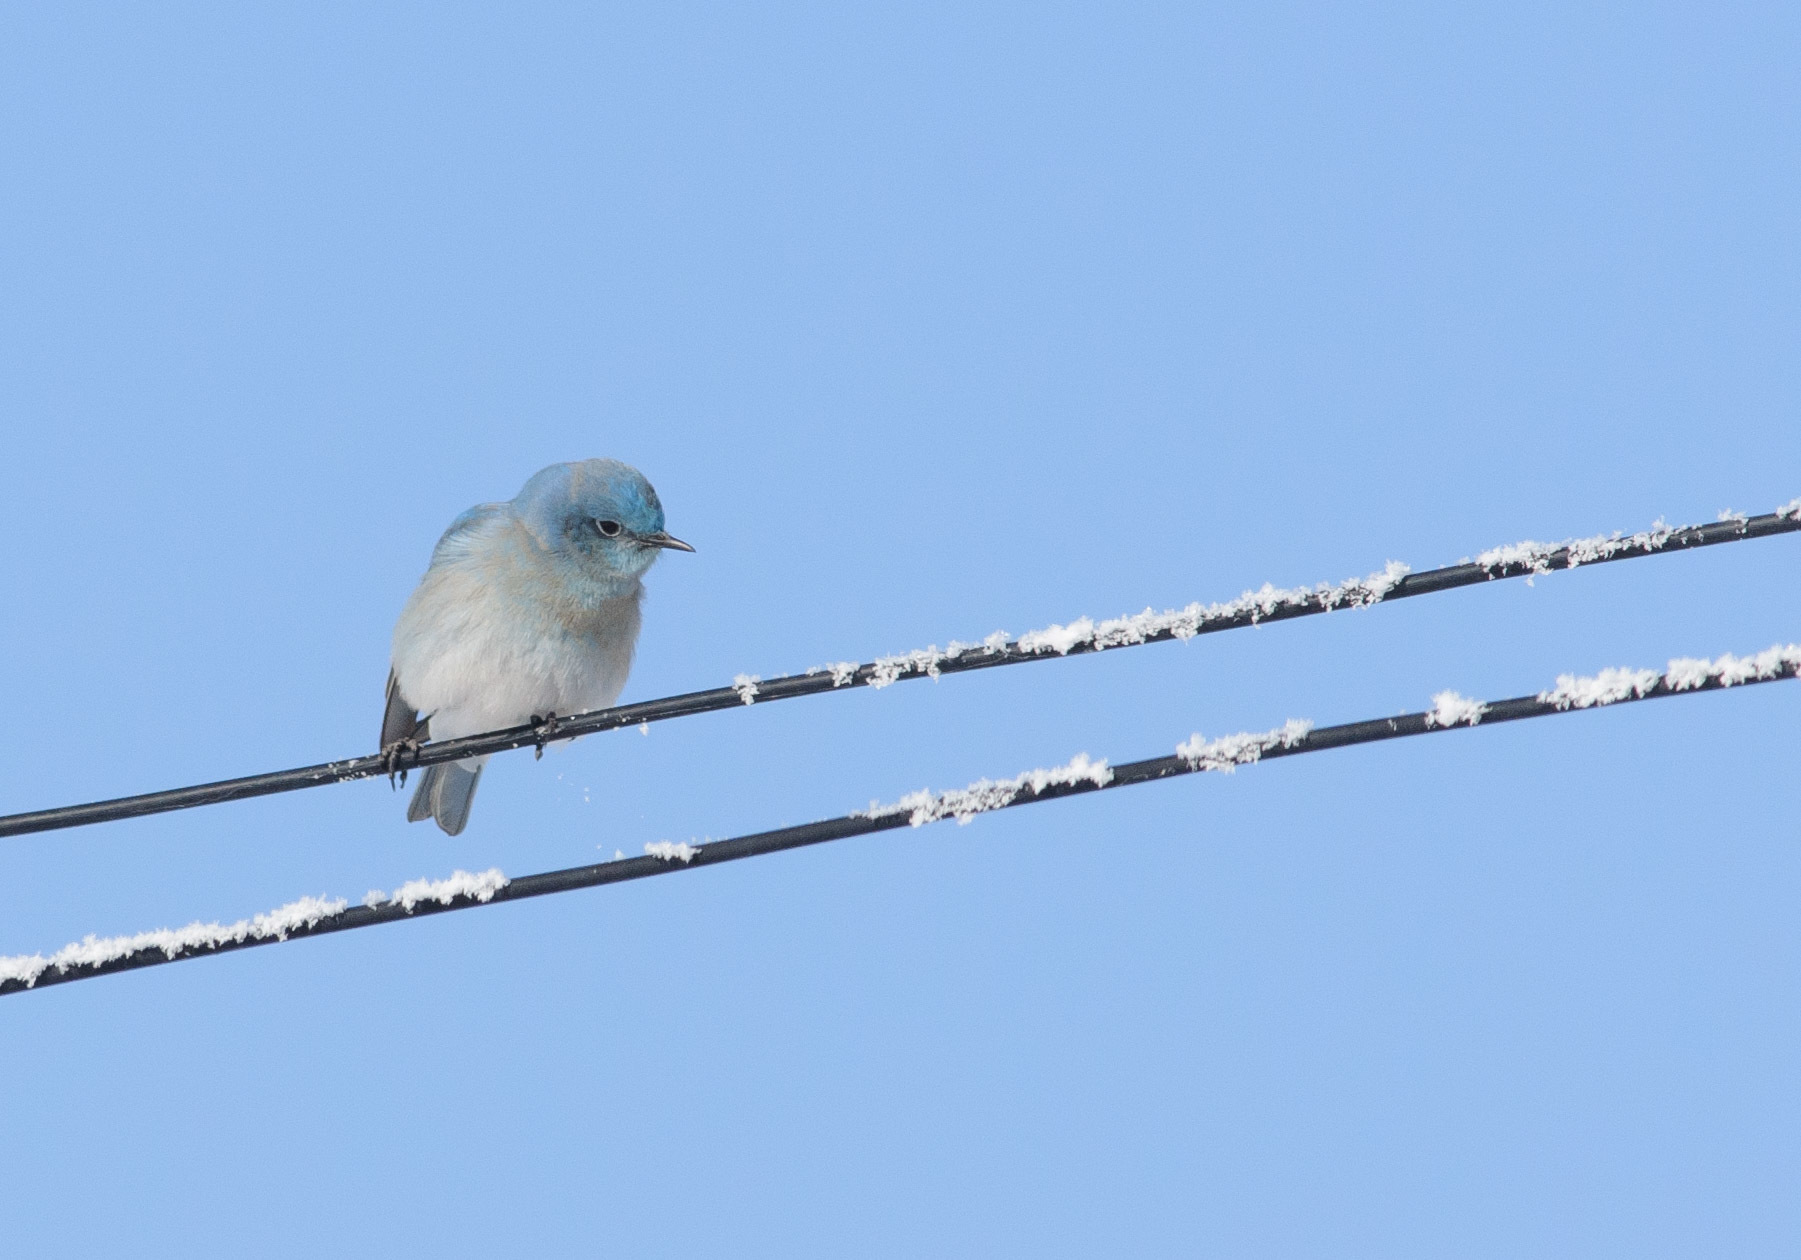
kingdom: Animalia
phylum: Chordata
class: Aves
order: Passeriformes
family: Turdidae
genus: Sialia
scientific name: Sialia currucoides
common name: Mountain bluebird
